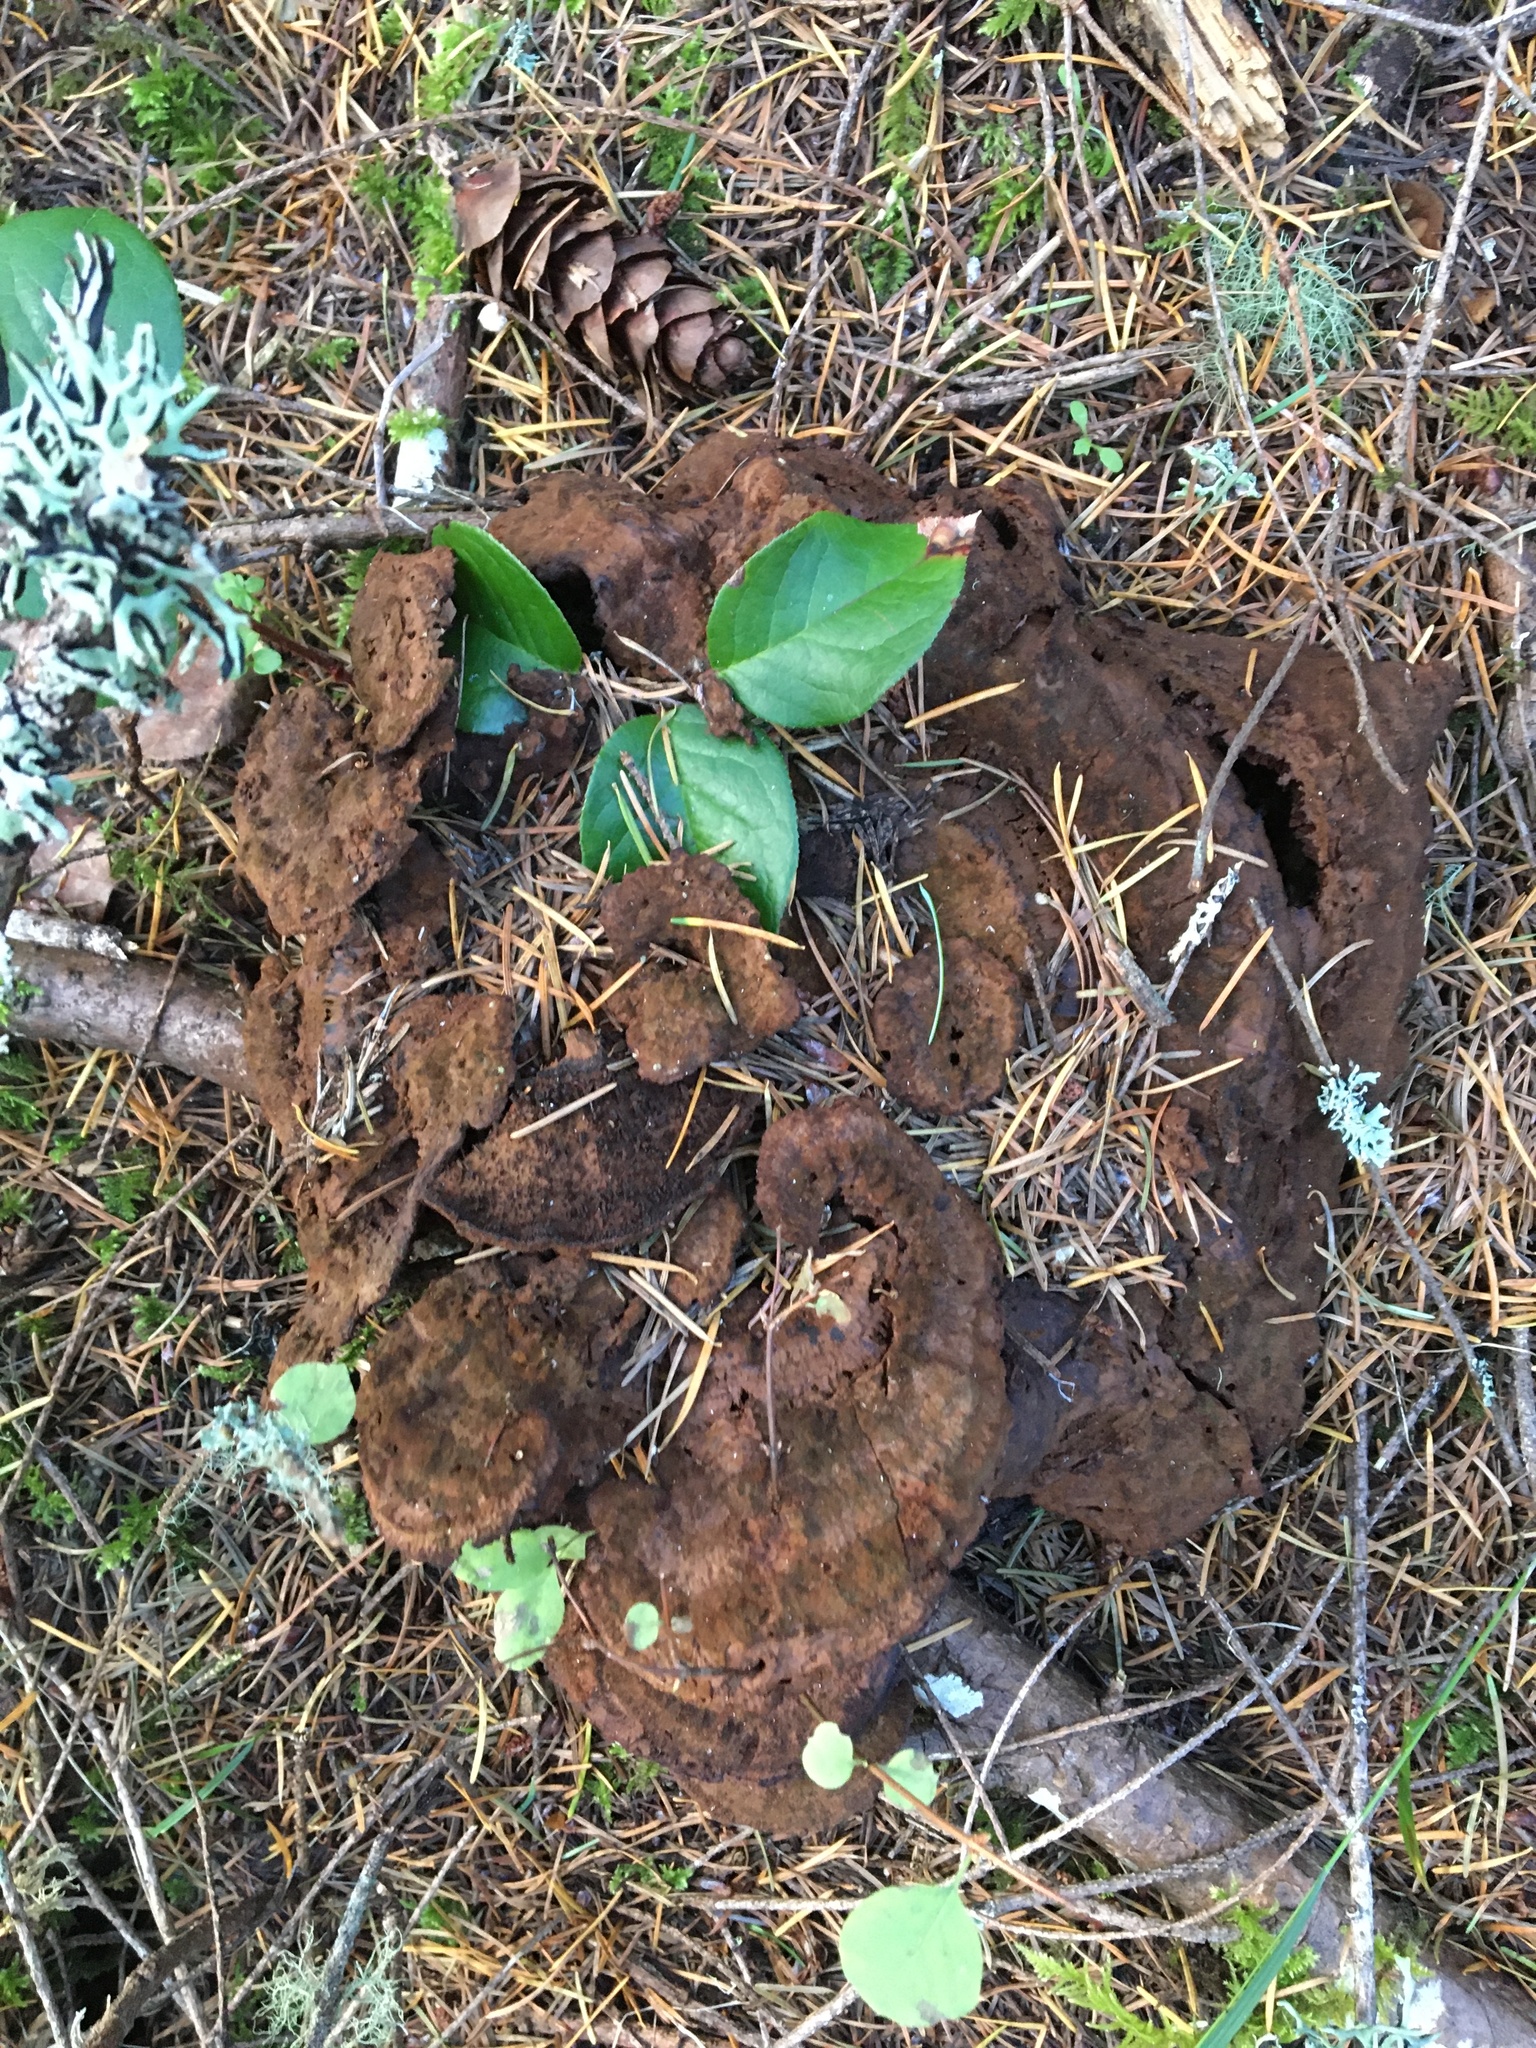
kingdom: Fungi
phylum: Basidiomycota
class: Agaricomycetes
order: Polyporales
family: Laetiporaceae
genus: Phaeolus
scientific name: Phaeolus schweinitzii
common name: Dyer's mazegill
